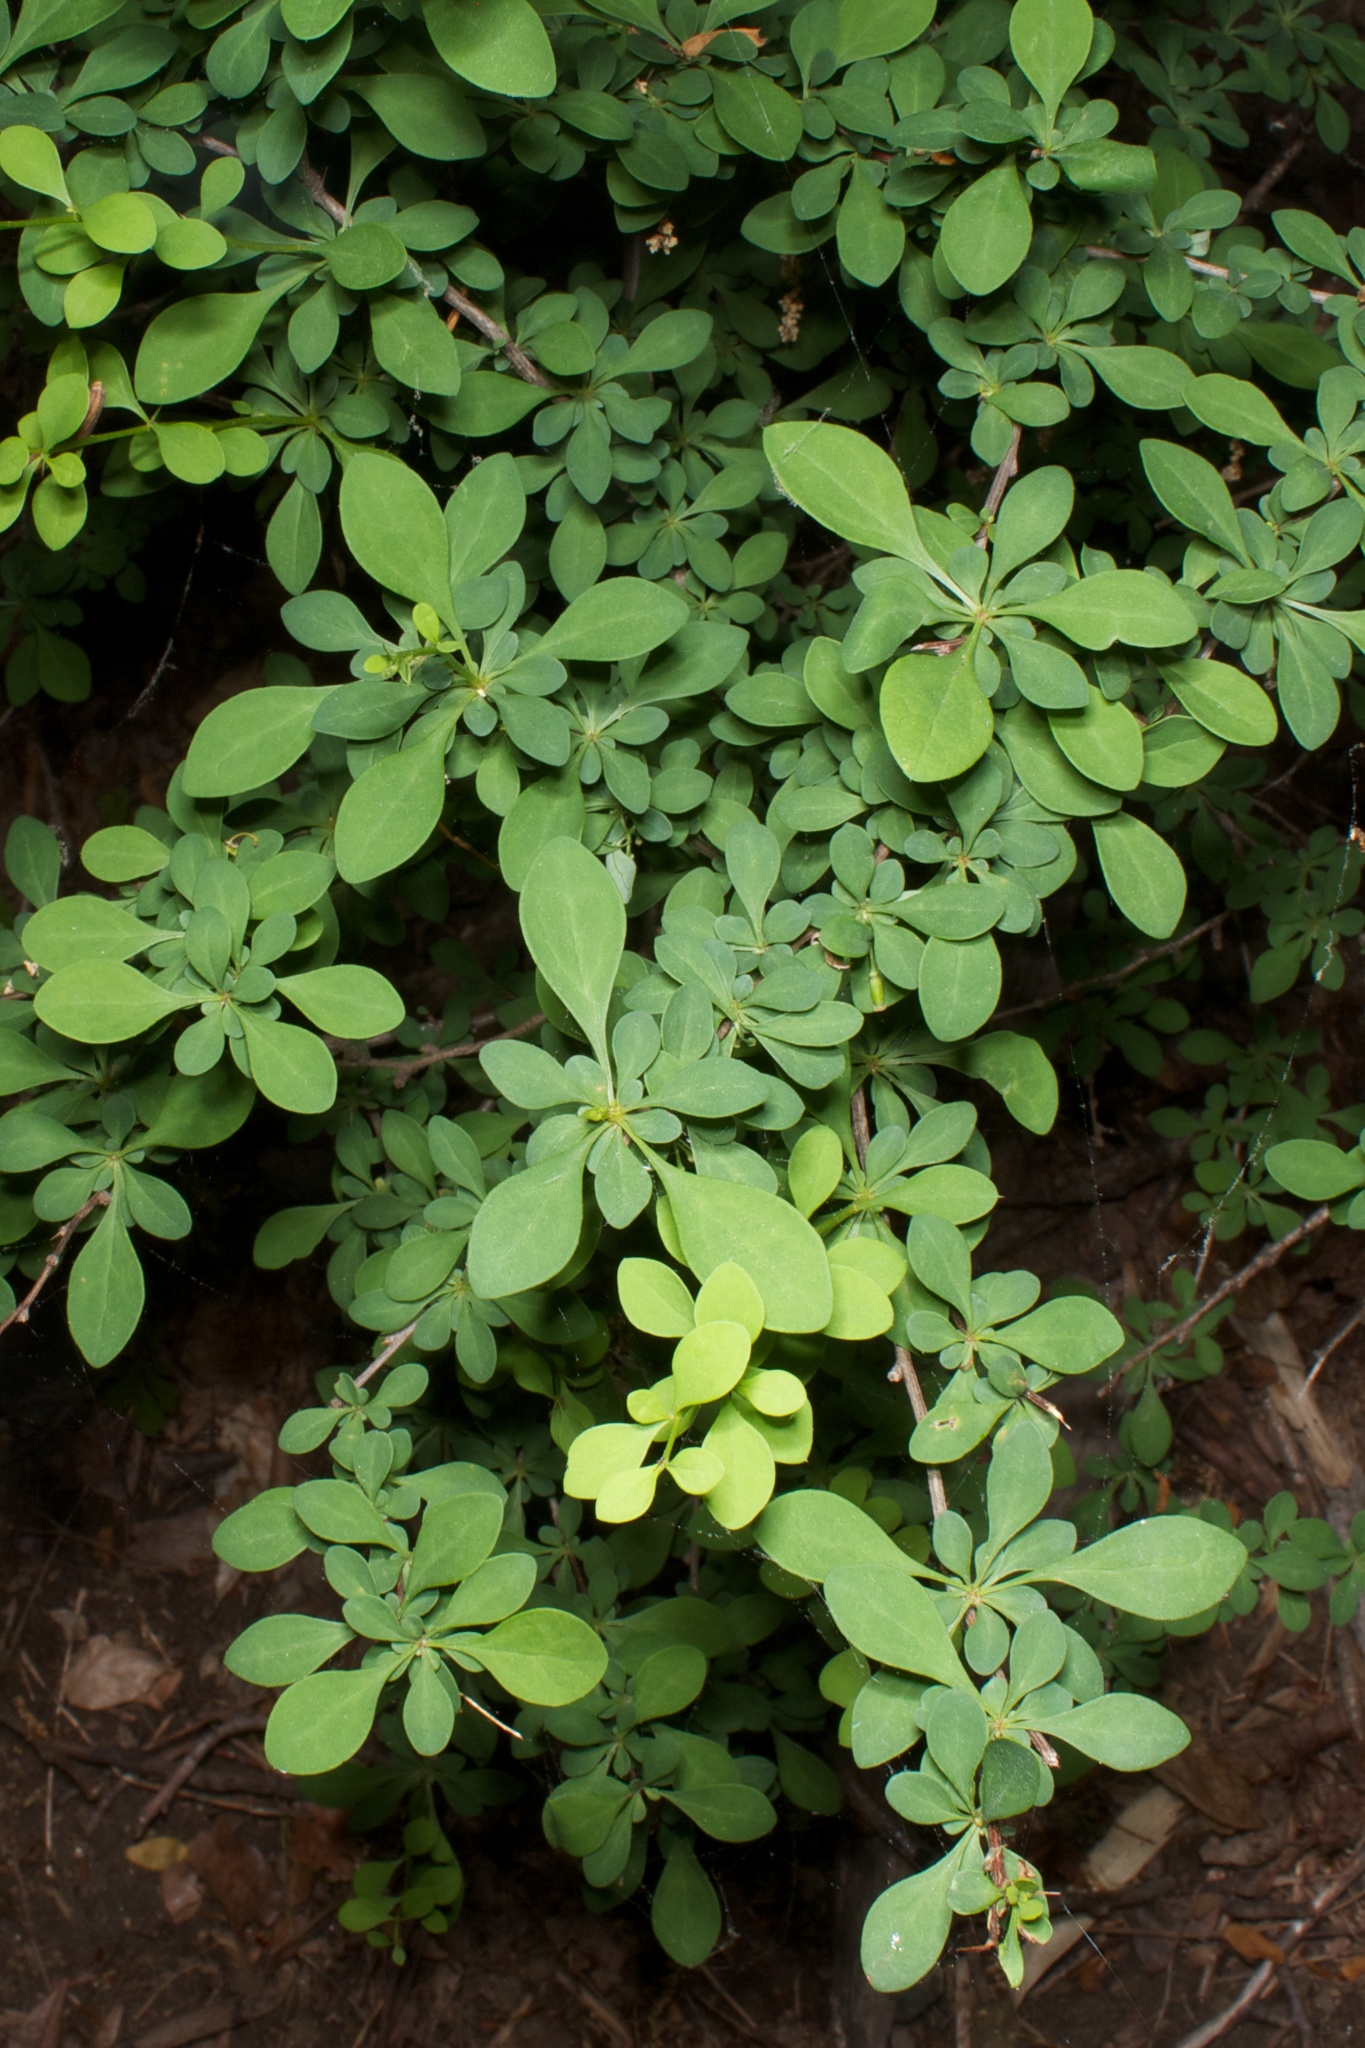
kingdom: Plantae
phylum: Tracheophyta
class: Magnoliopsida
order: Ranunculales
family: Berberidaceae
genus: Berberis
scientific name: Berberis thunbergii
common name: Japanese barberry
